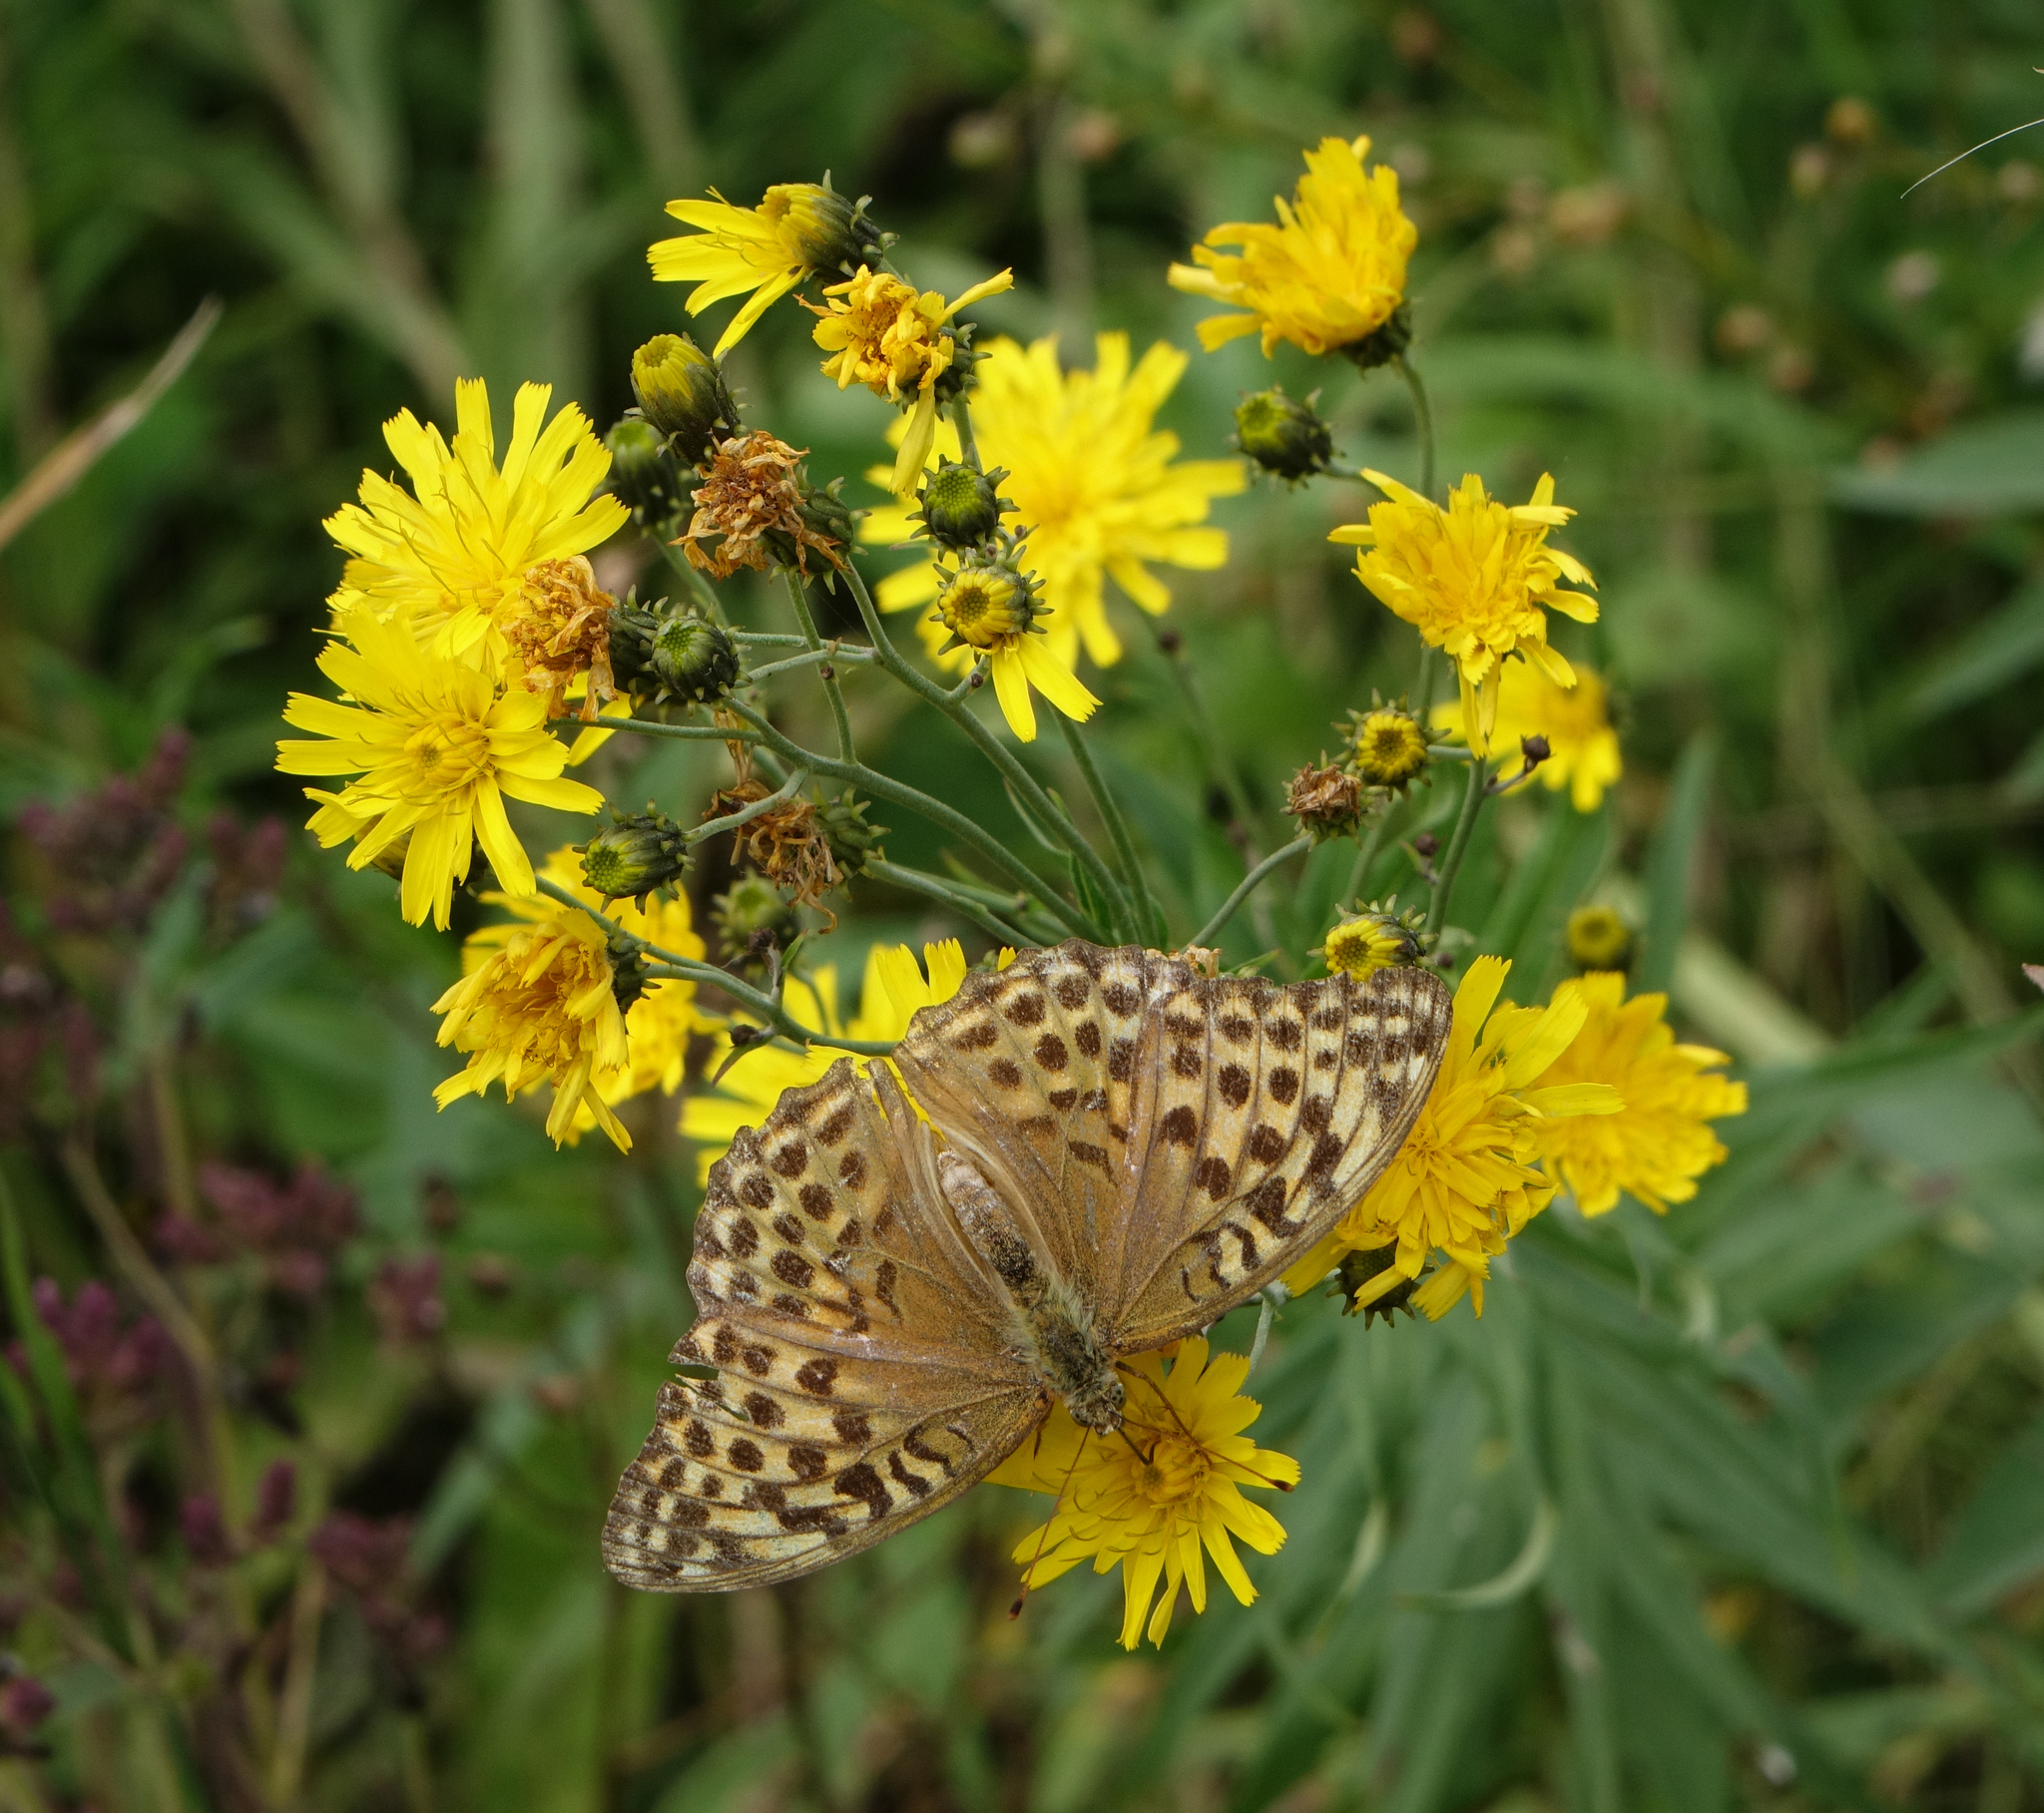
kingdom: Animalia
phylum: Arthropoda
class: Insecta
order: Lepidoptera
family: Nymphalidae
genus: Argynnis
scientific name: Argynnis paphia
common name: Silver-washed fritillary
